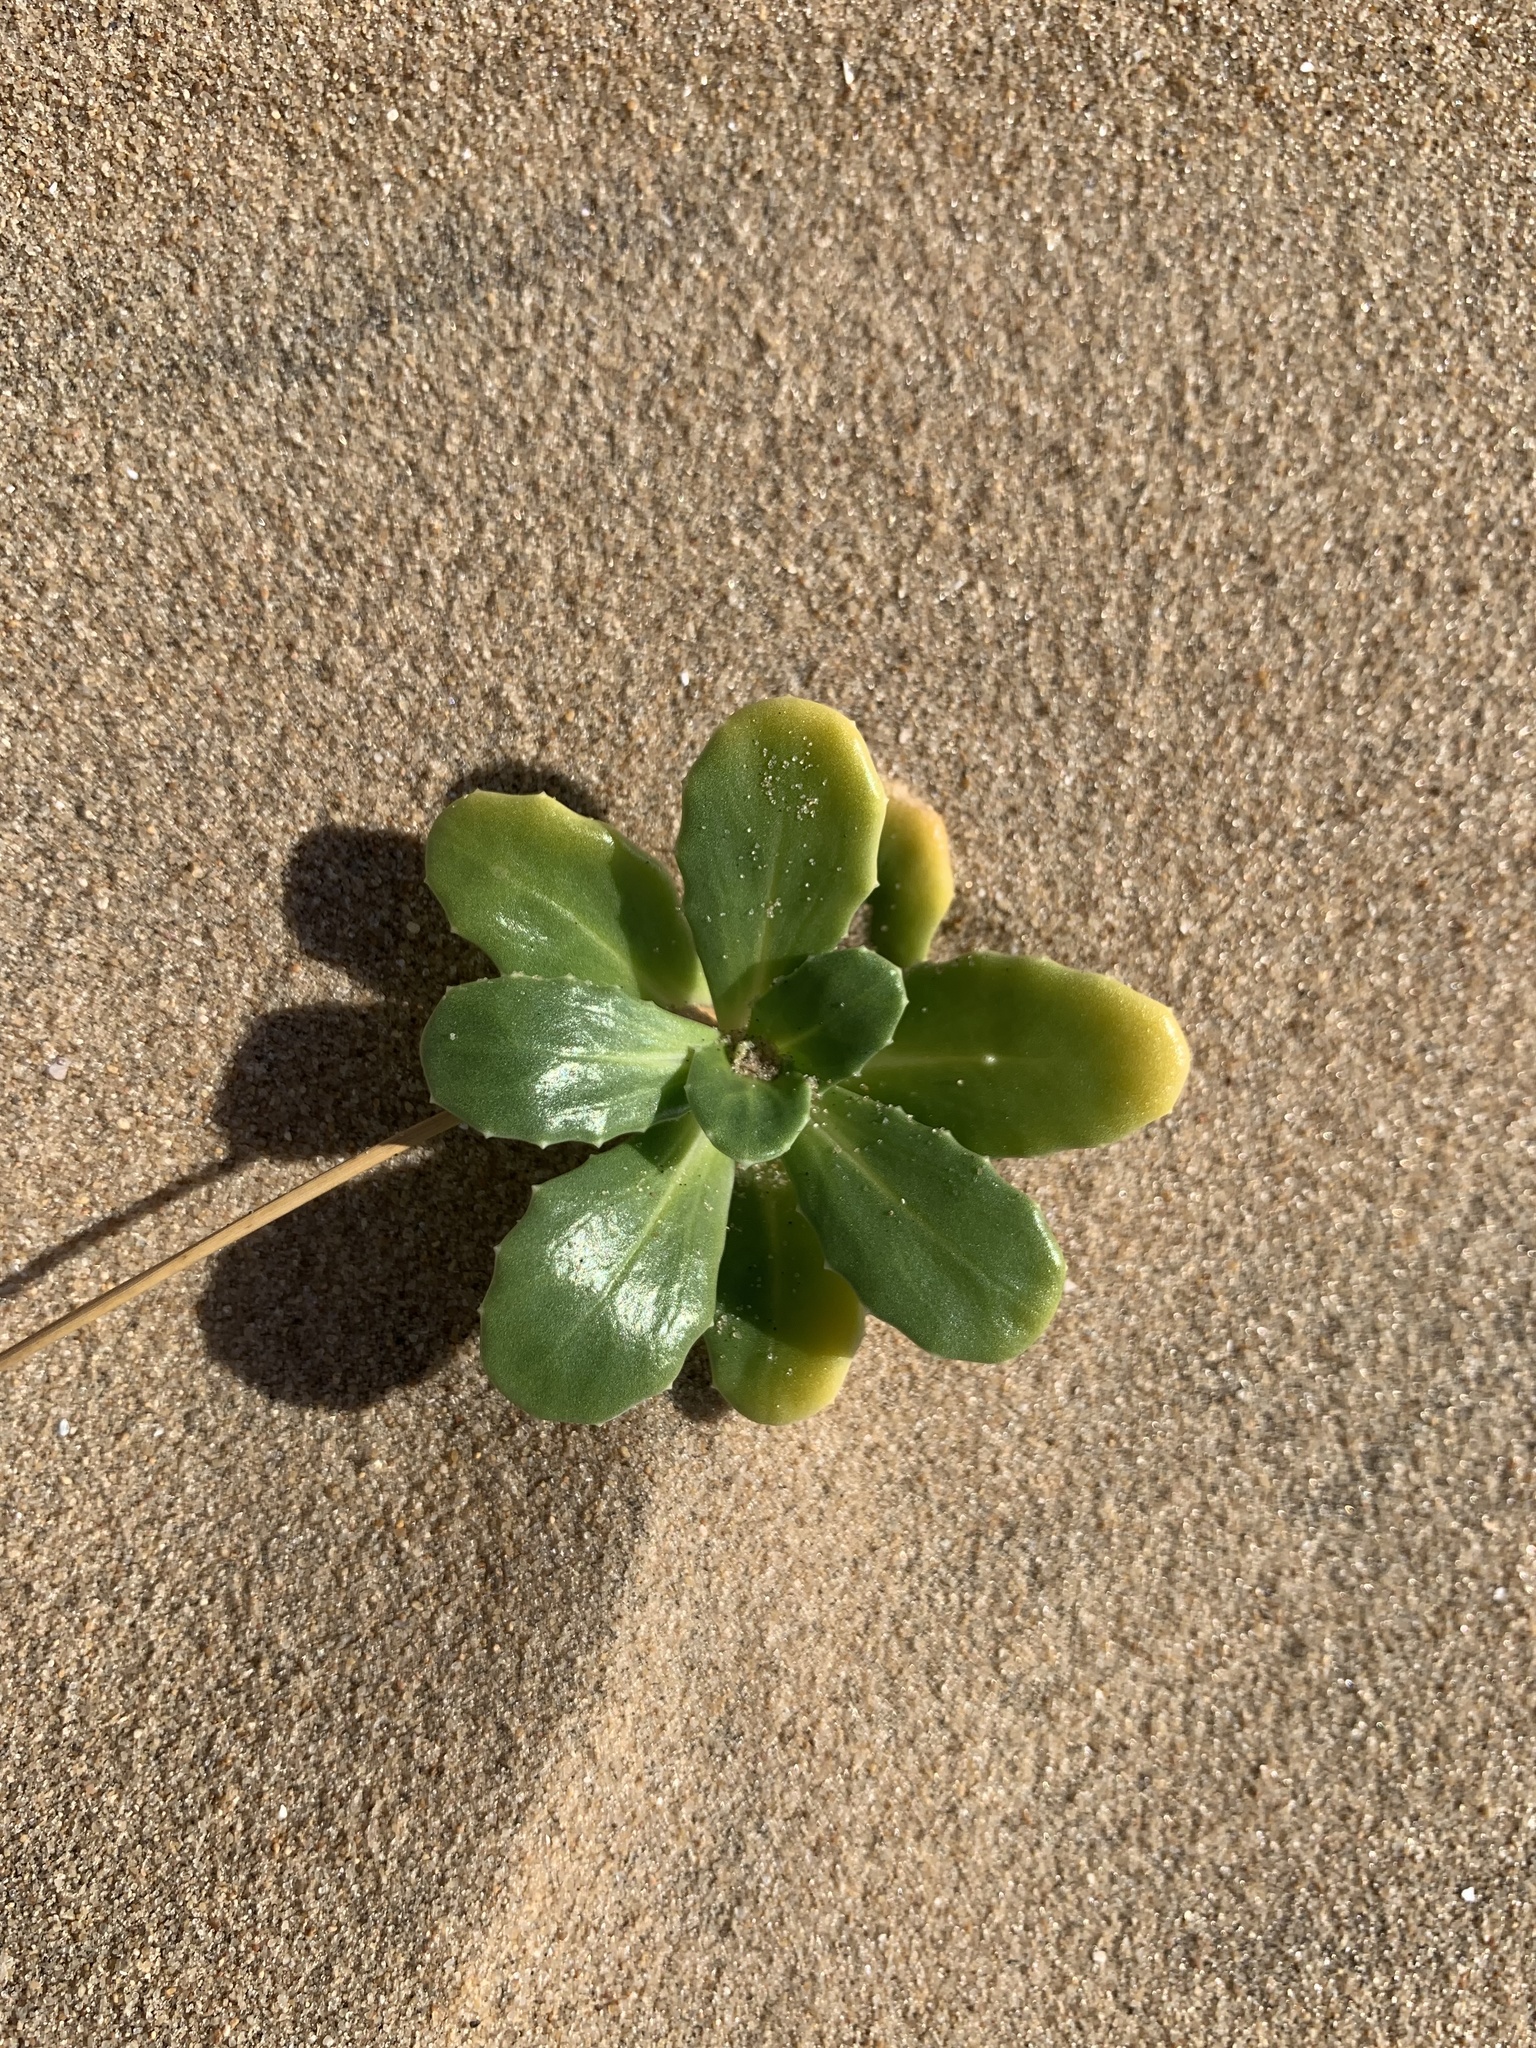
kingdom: Plantae
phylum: Tracheophyta
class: Magnoliopsida
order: Asterales
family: Calyceraceae
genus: Calycera
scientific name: Calycera crassifolia
